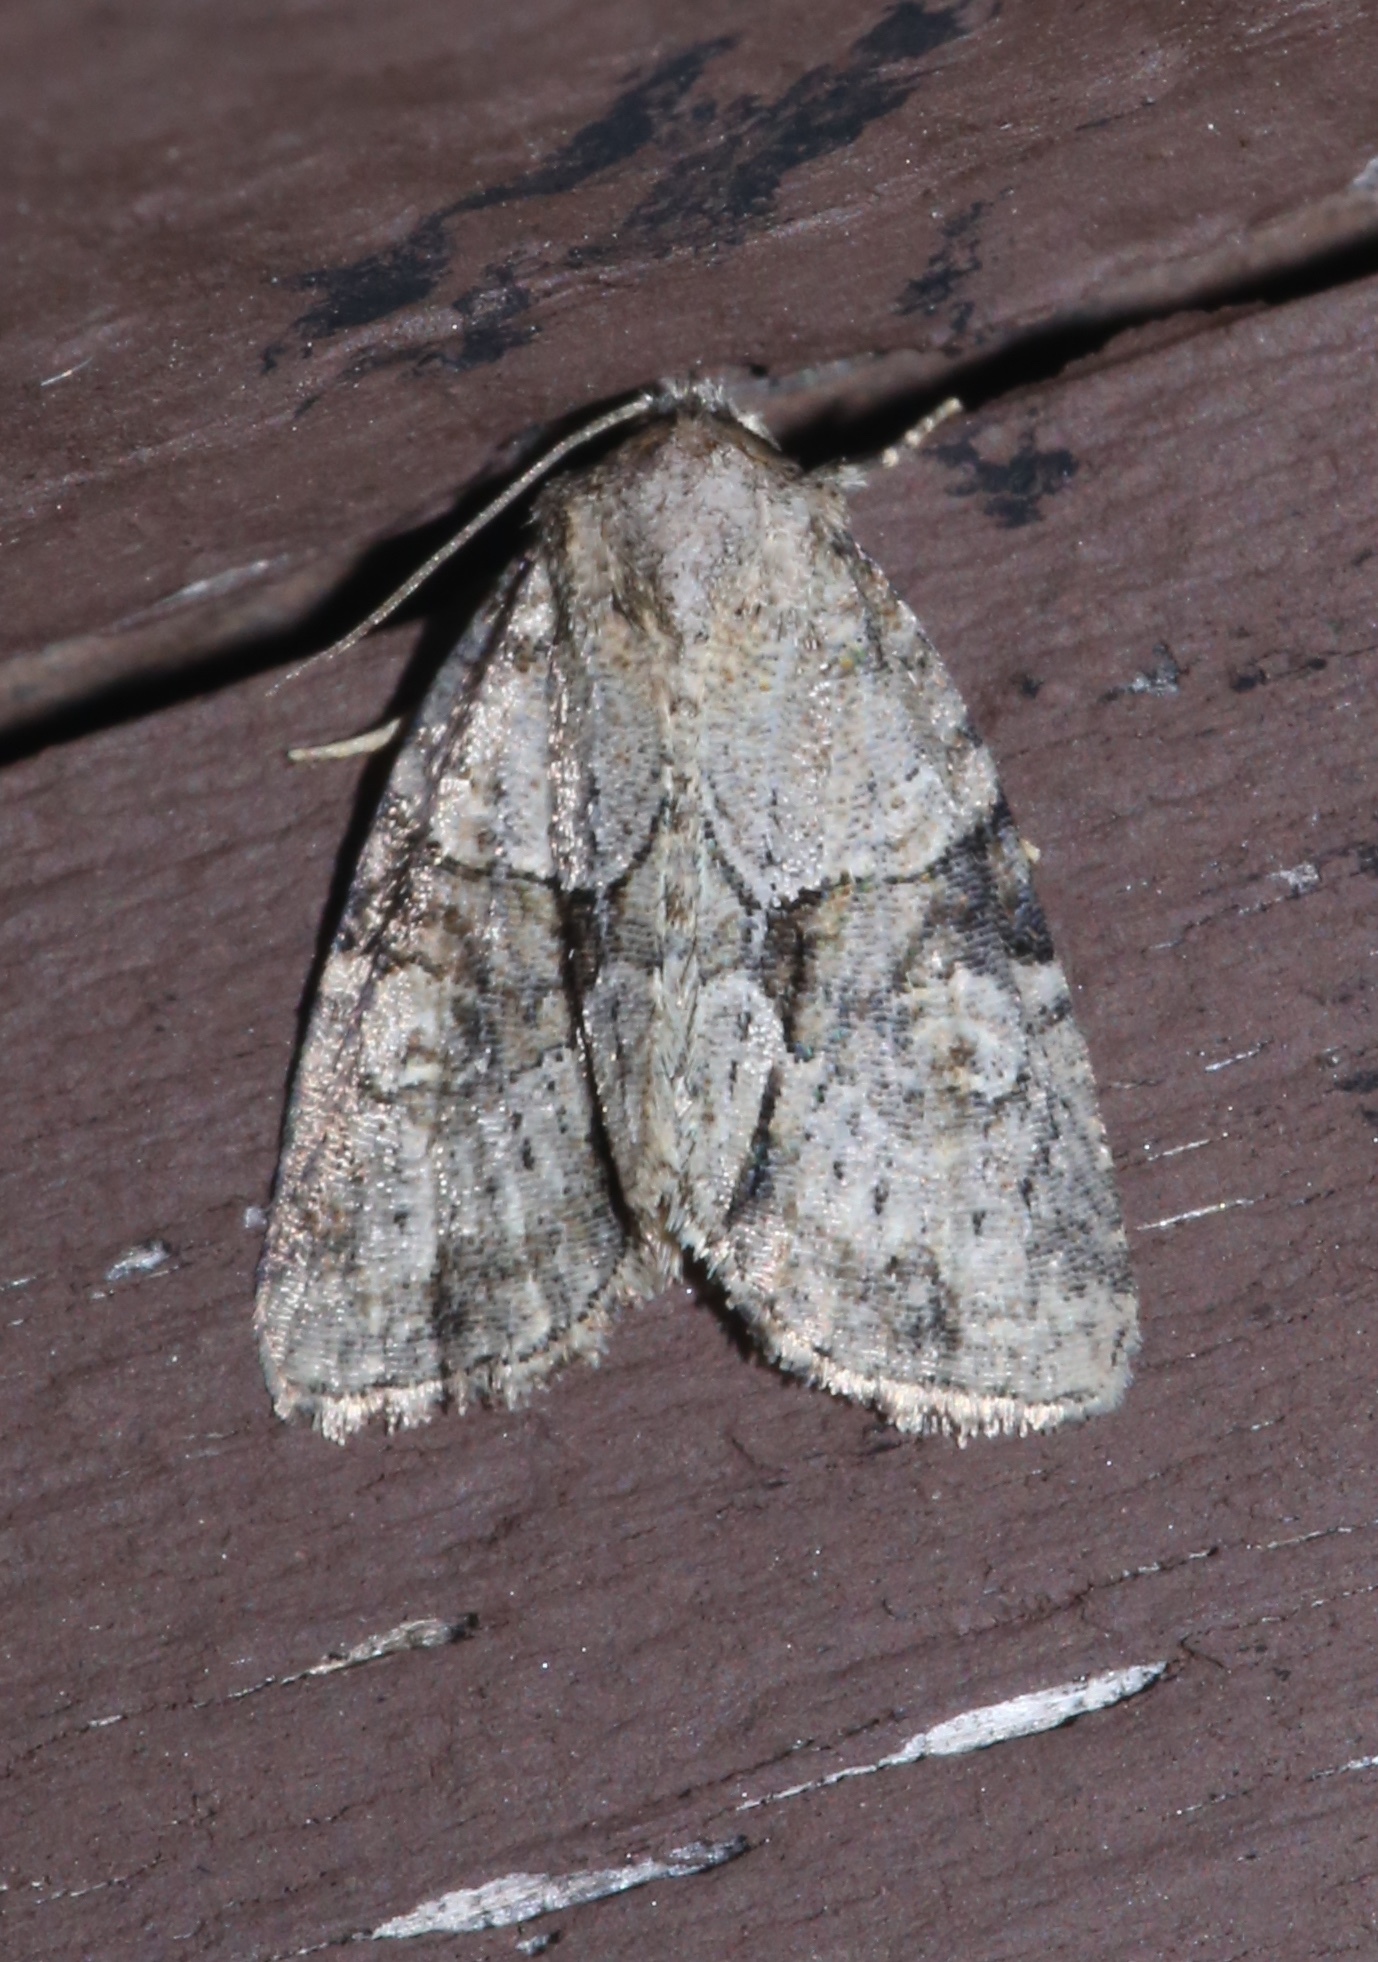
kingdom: Animalia
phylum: Arthropoda
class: Insecta
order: Lepidoptera
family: Noctuidae
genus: Neoligia
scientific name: Neoligia exhausta
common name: Exhausted brocade
